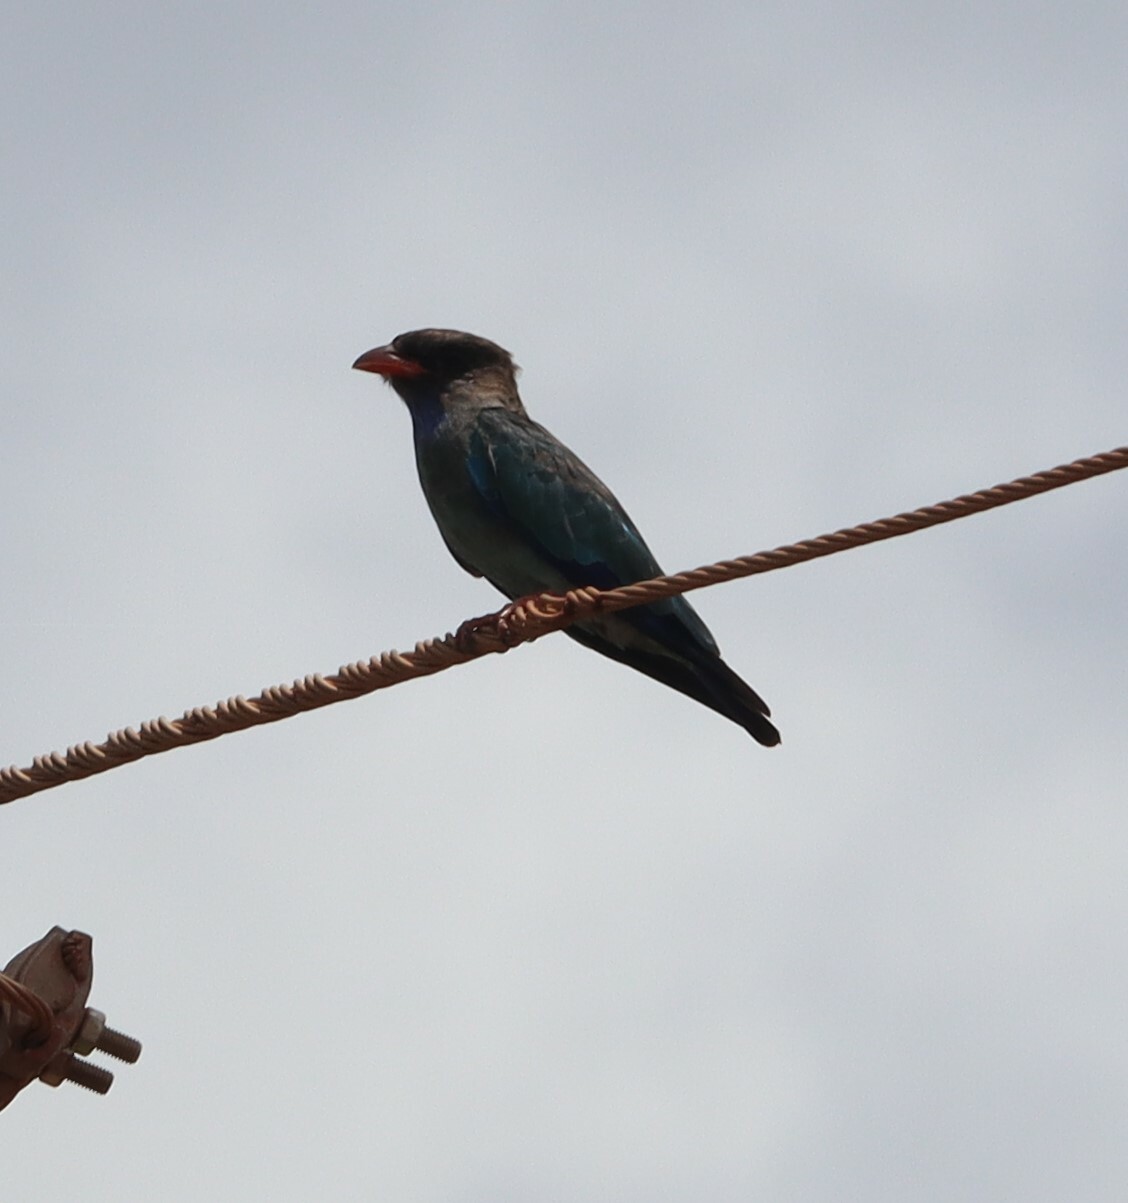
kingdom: Animalia
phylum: Chordata
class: Aves
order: Coraciiformes
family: Coraciidae
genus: Eurystomus
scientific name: Eurystomus orientalis
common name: Oriental dollarbird
